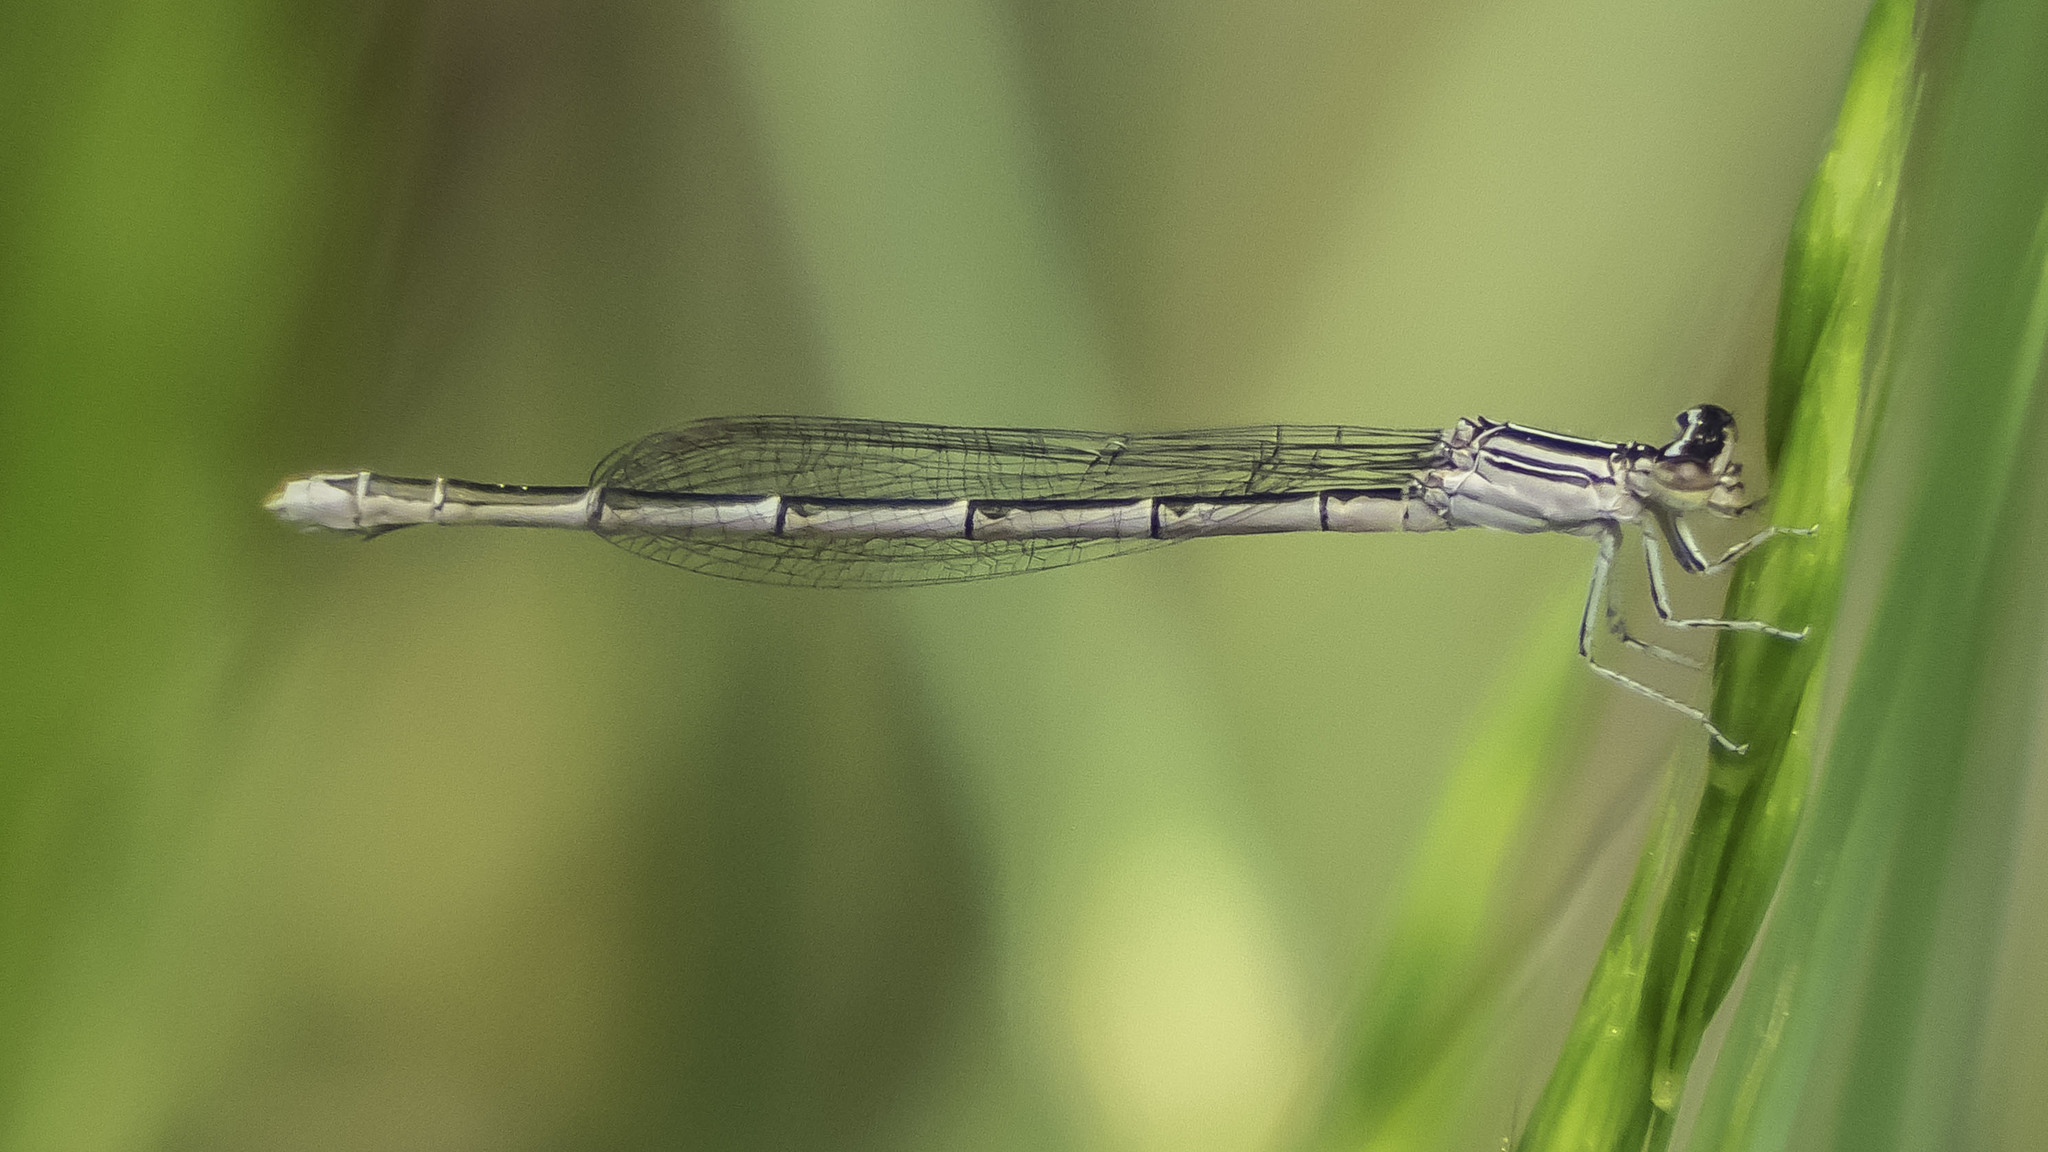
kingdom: Animalia
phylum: Arthropoda
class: Insecta
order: Odonata
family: Coenagrionidae
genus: Enallagma
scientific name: Enallagma basidens
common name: Double-striped bluet
